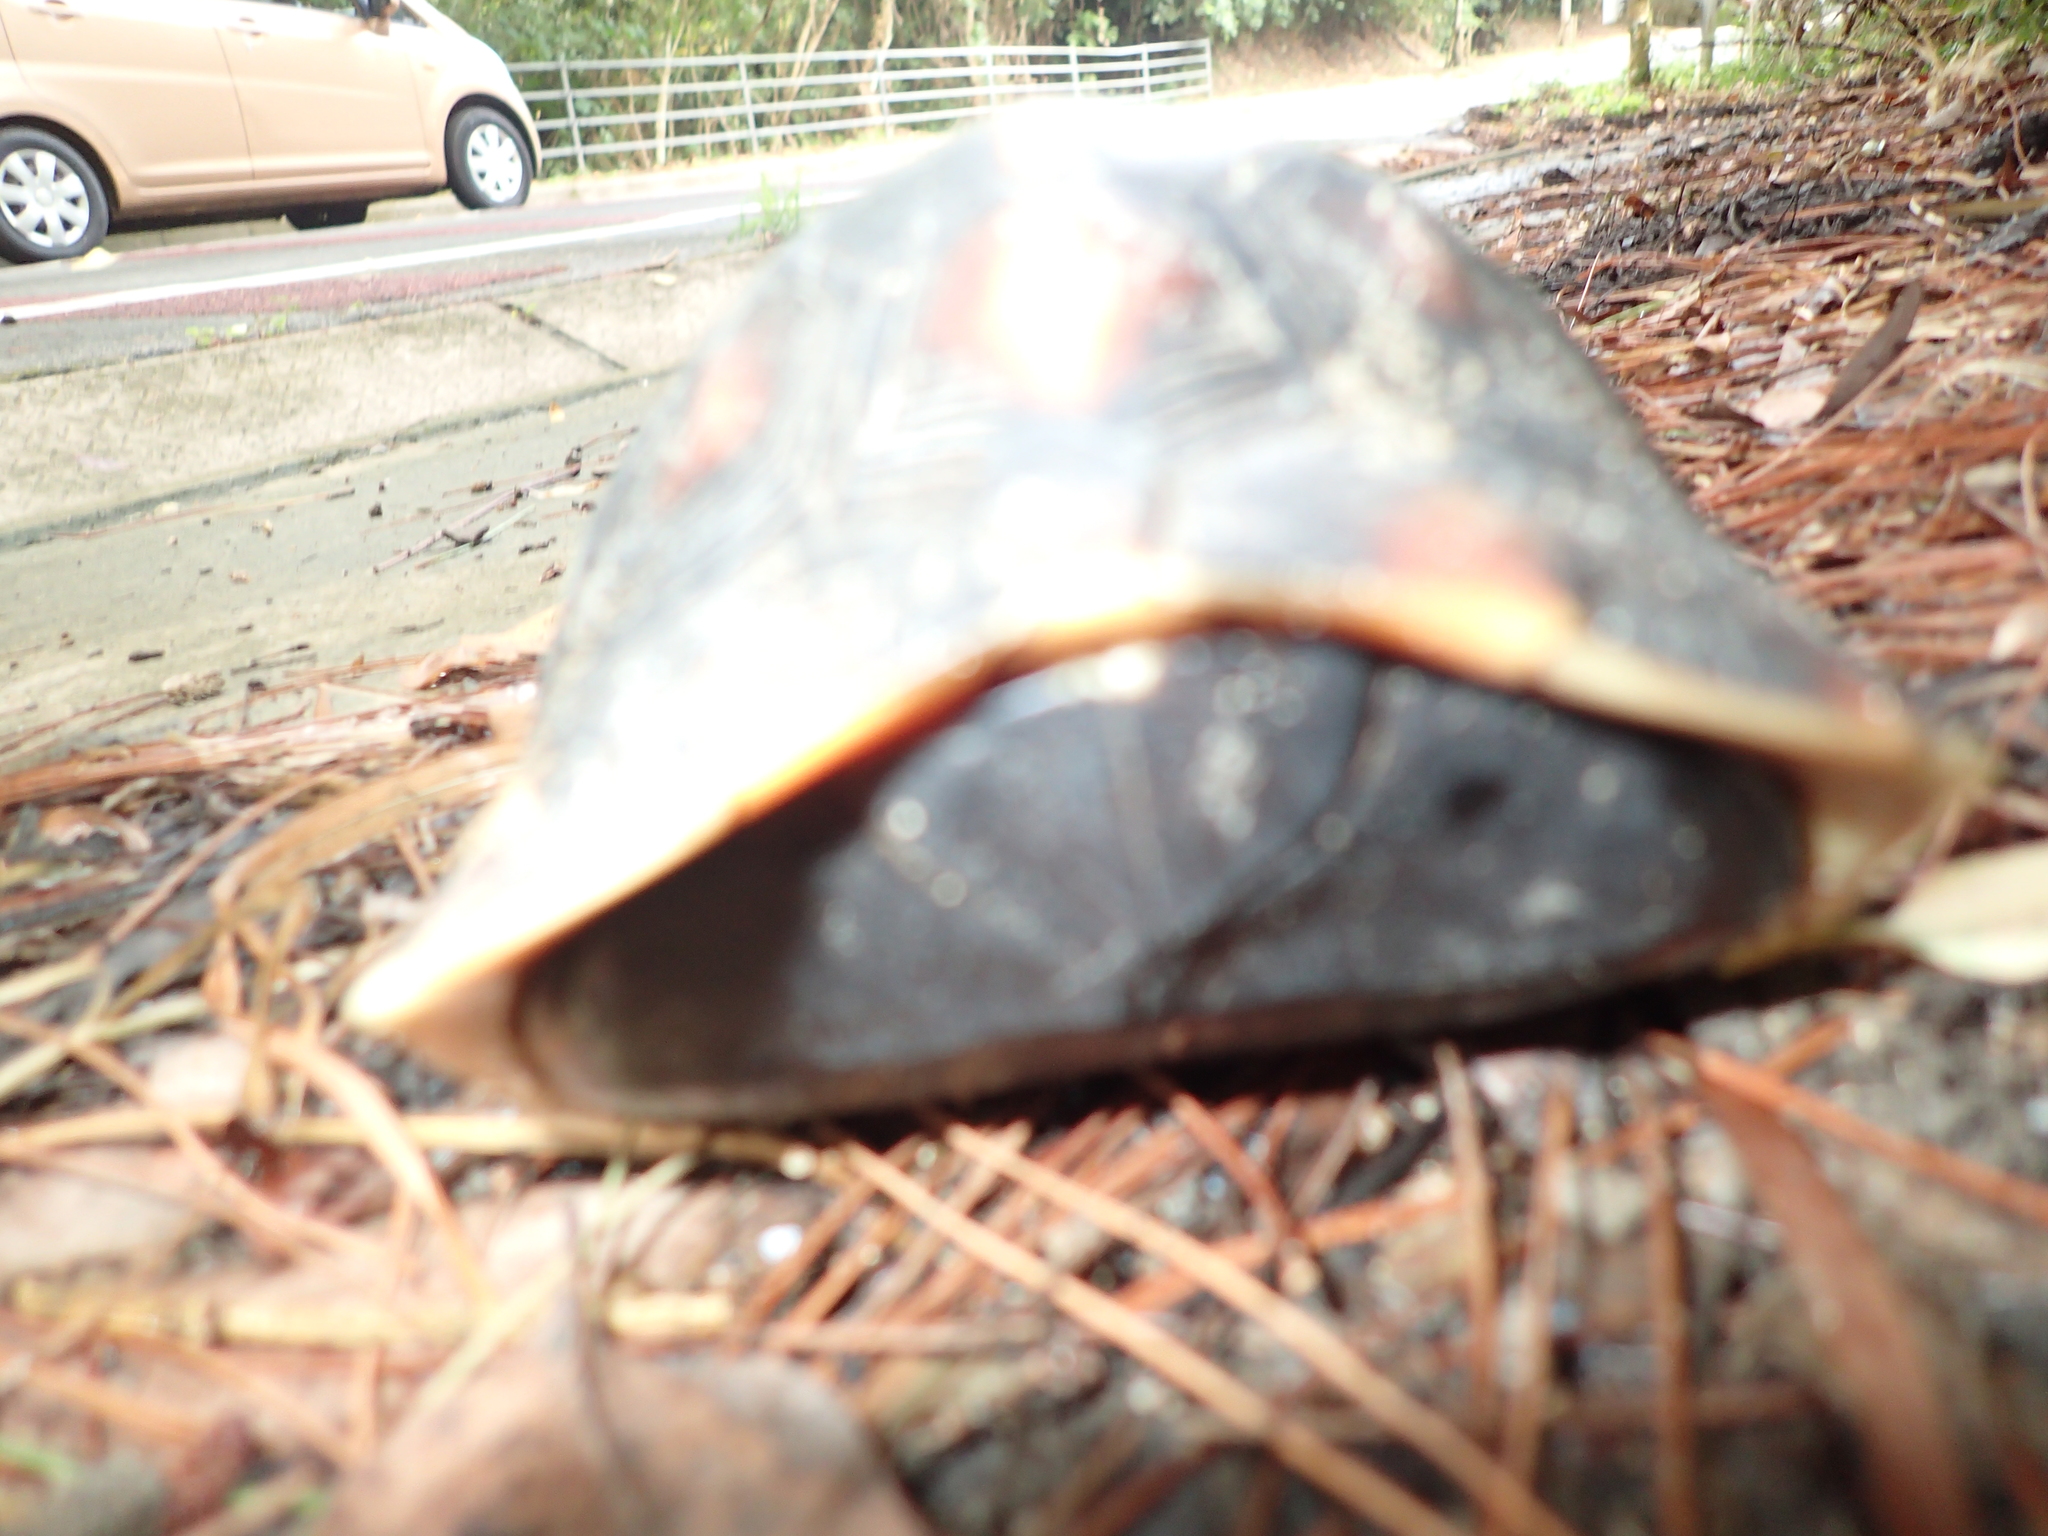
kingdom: Animalia
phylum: Chordata
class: Testudines
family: Geoemydidae
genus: Cuora
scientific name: Cuora flavomarginata
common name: Yellow-margined box turtle
